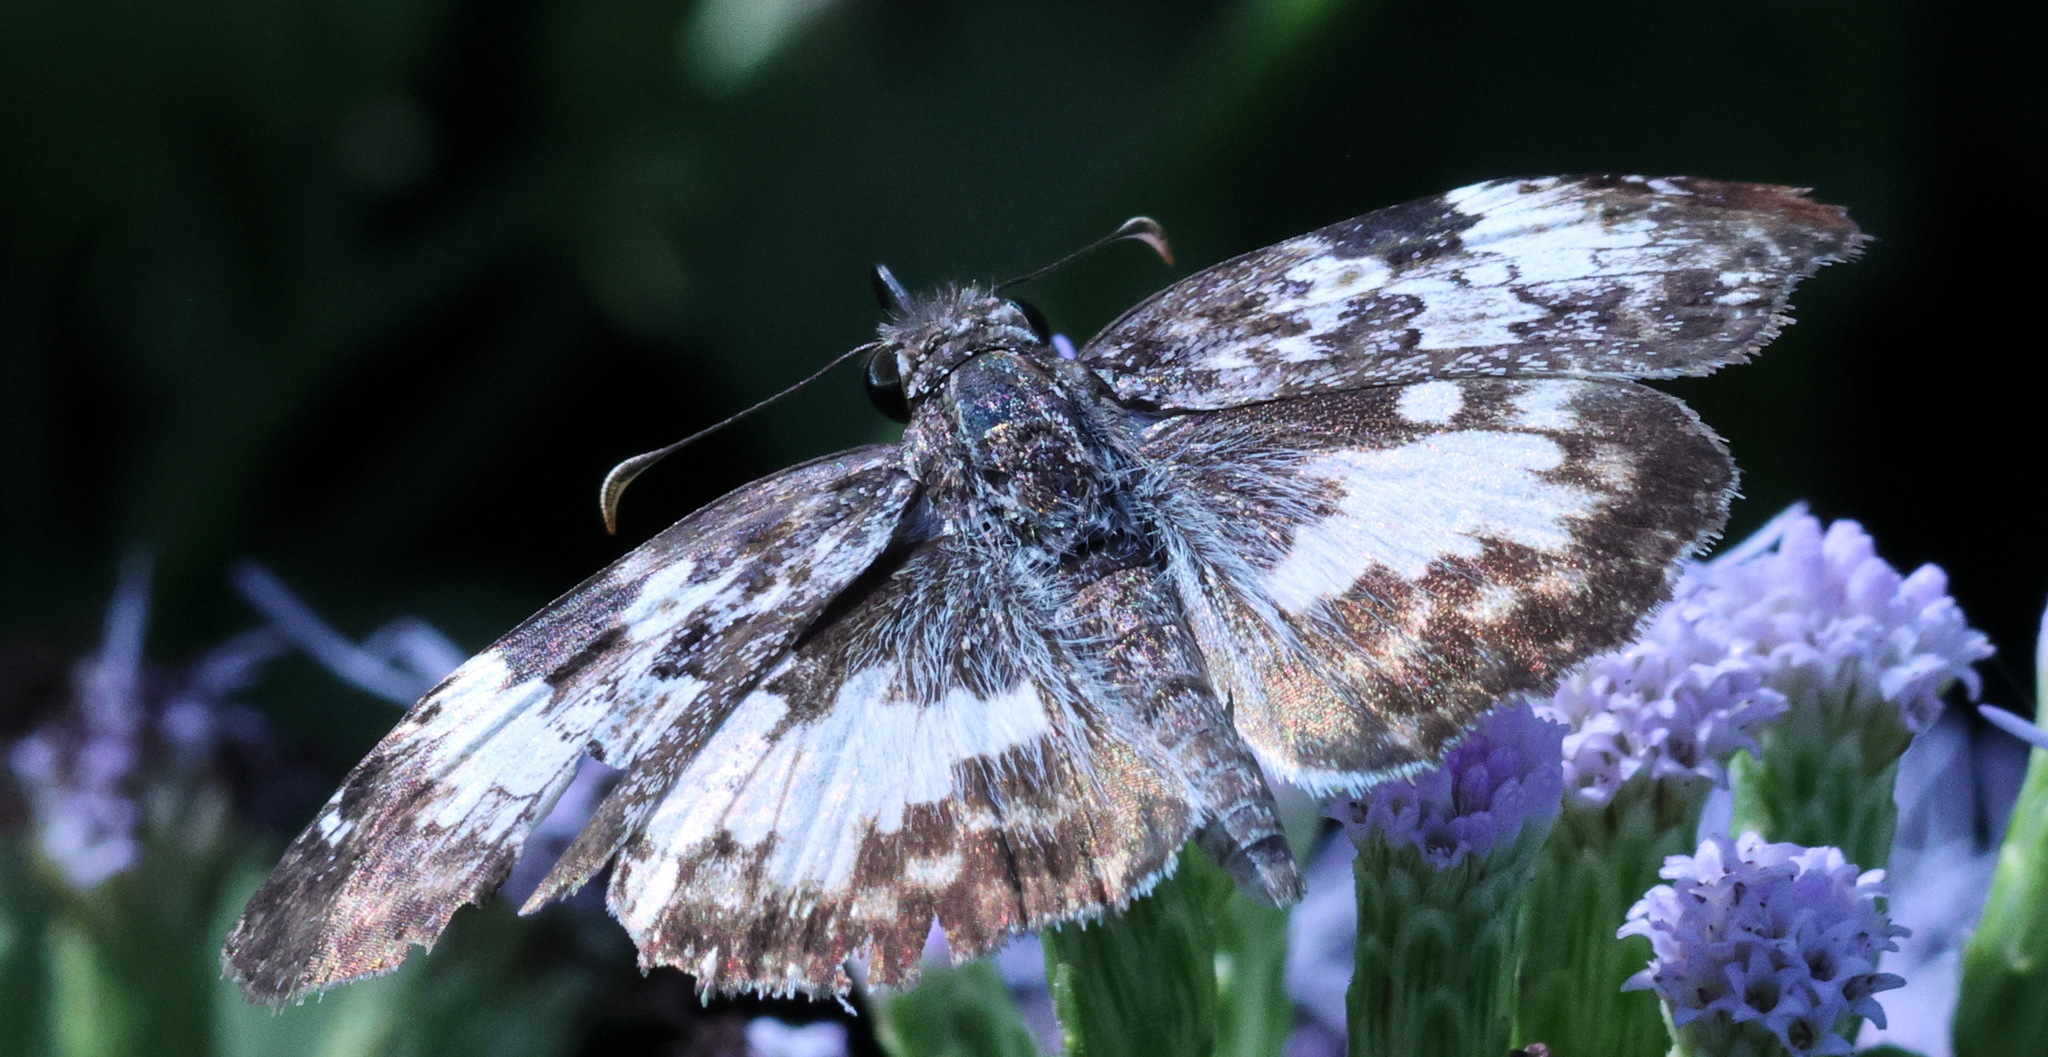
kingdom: Animalia
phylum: Arthropoda
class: Insecta
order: Lepidoptera
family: Hesperiidae
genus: Chiothion
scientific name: Chiothion georgina
